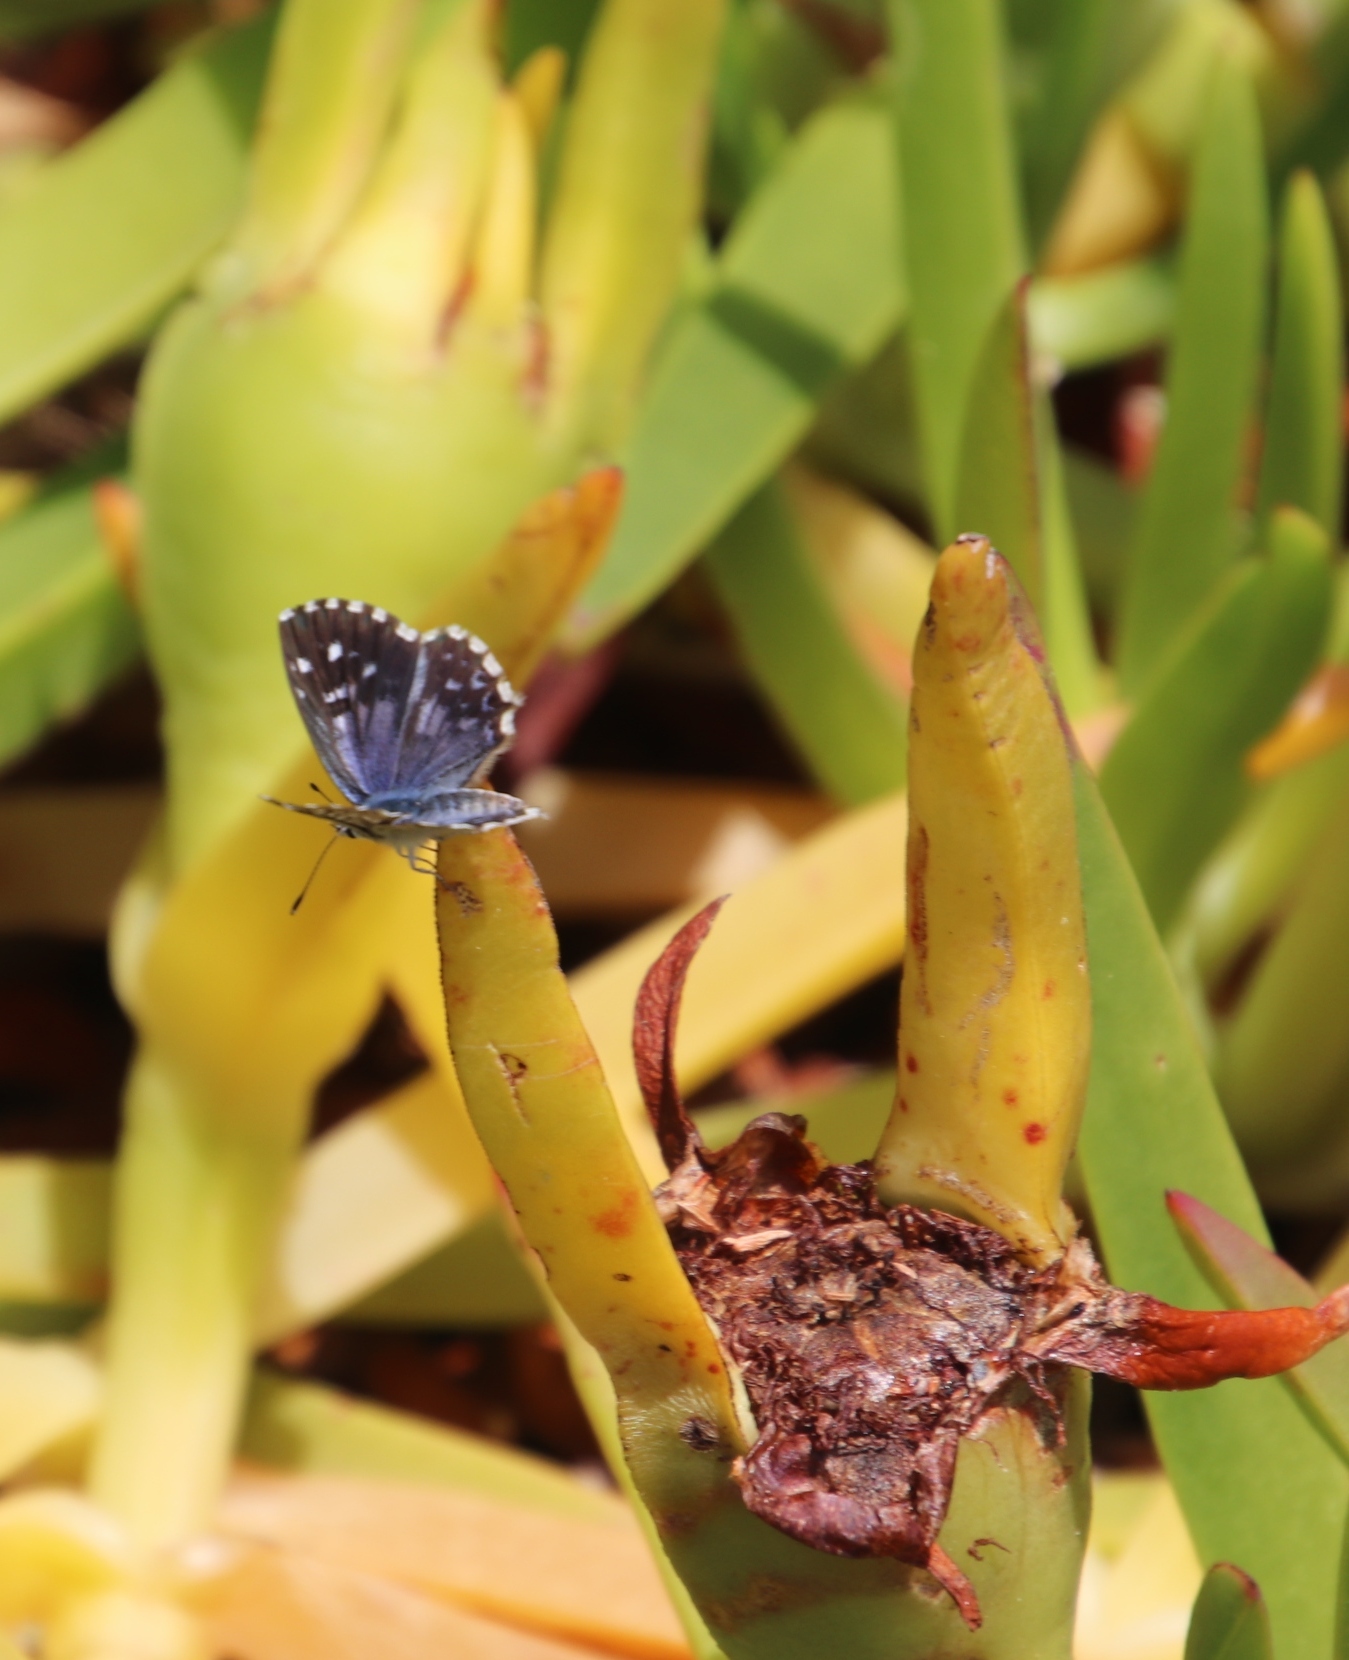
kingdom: Plantae
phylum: Tracheophyta
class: Magnoliopsida
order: Caryophyllales
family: Aizoaceae
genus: Carpobrotus
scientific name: Carpobrotus edulis
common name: Hottentot-fig
